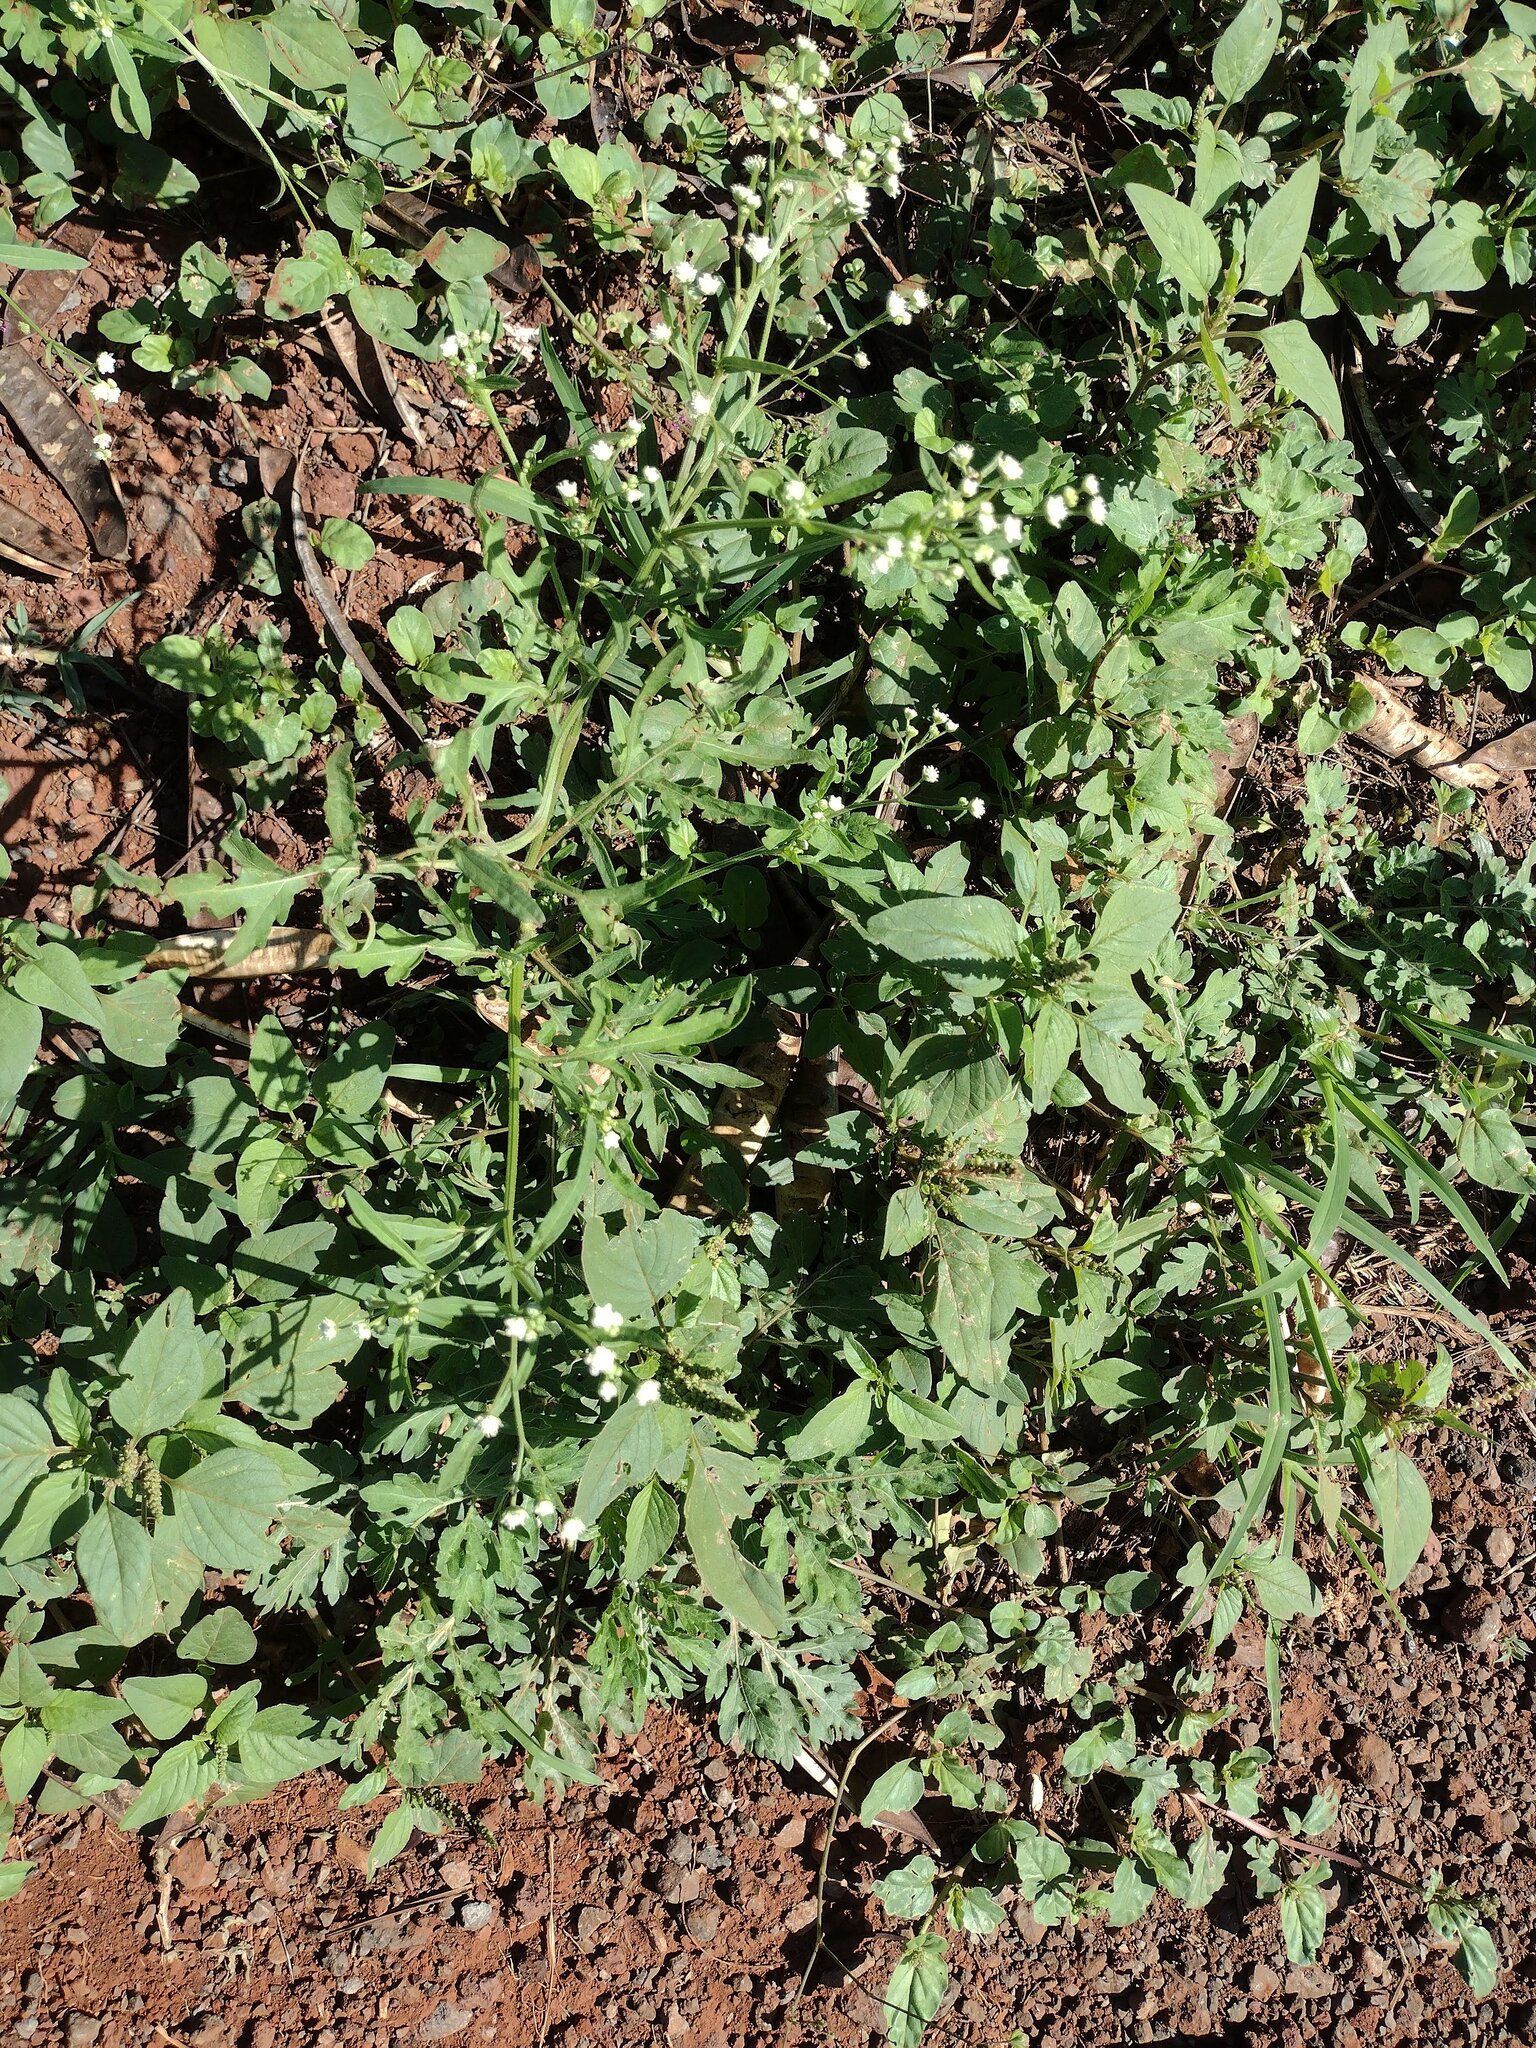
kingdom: Plantae
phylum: Tracheophyta
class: Magnoliopsida
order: Asterales
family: Asteraceae
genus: Parthenium
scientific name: Parthenium hysterophorus
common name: Santa maria feverfew
